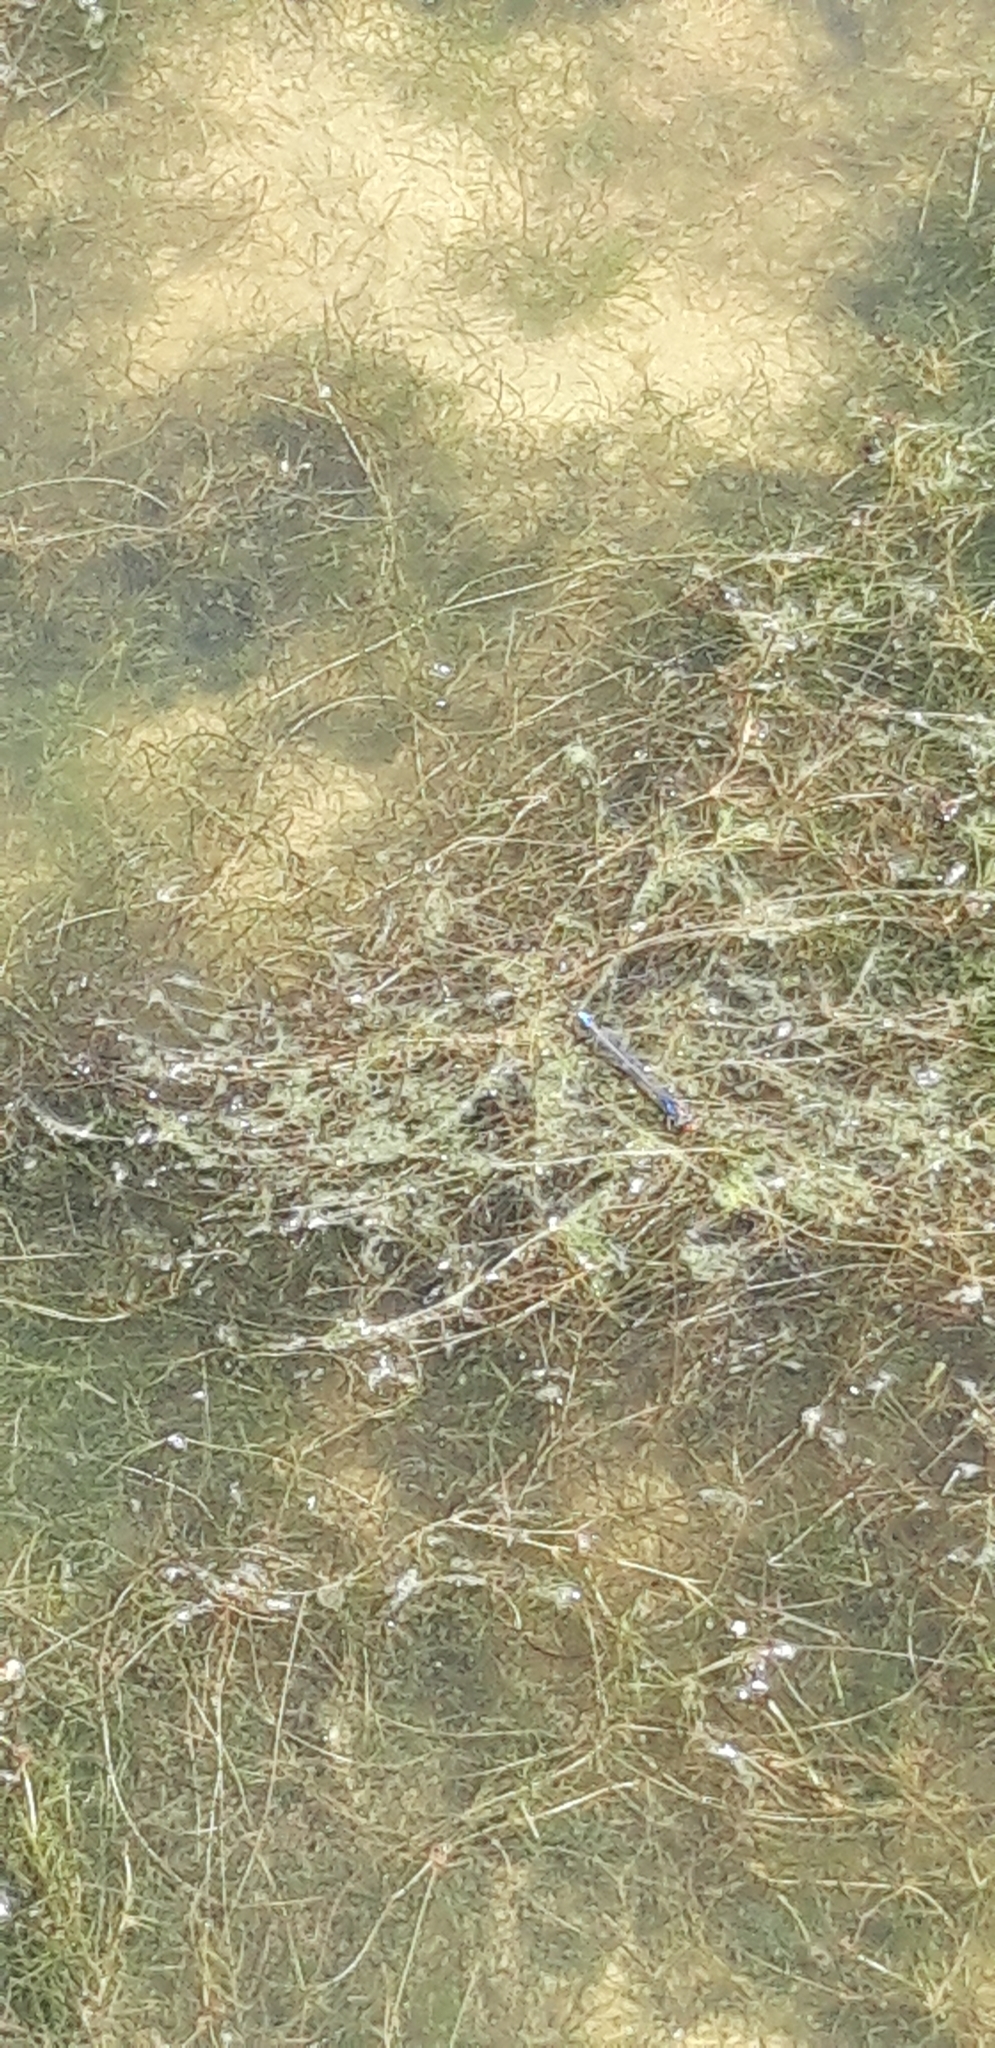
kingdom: Animalia
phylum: Arthropoda
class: Insecta
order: Odonata
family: Coenagrionidae
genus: Erythromma
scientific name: Erythromma viridulum
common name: Small red-eyed damselfly
